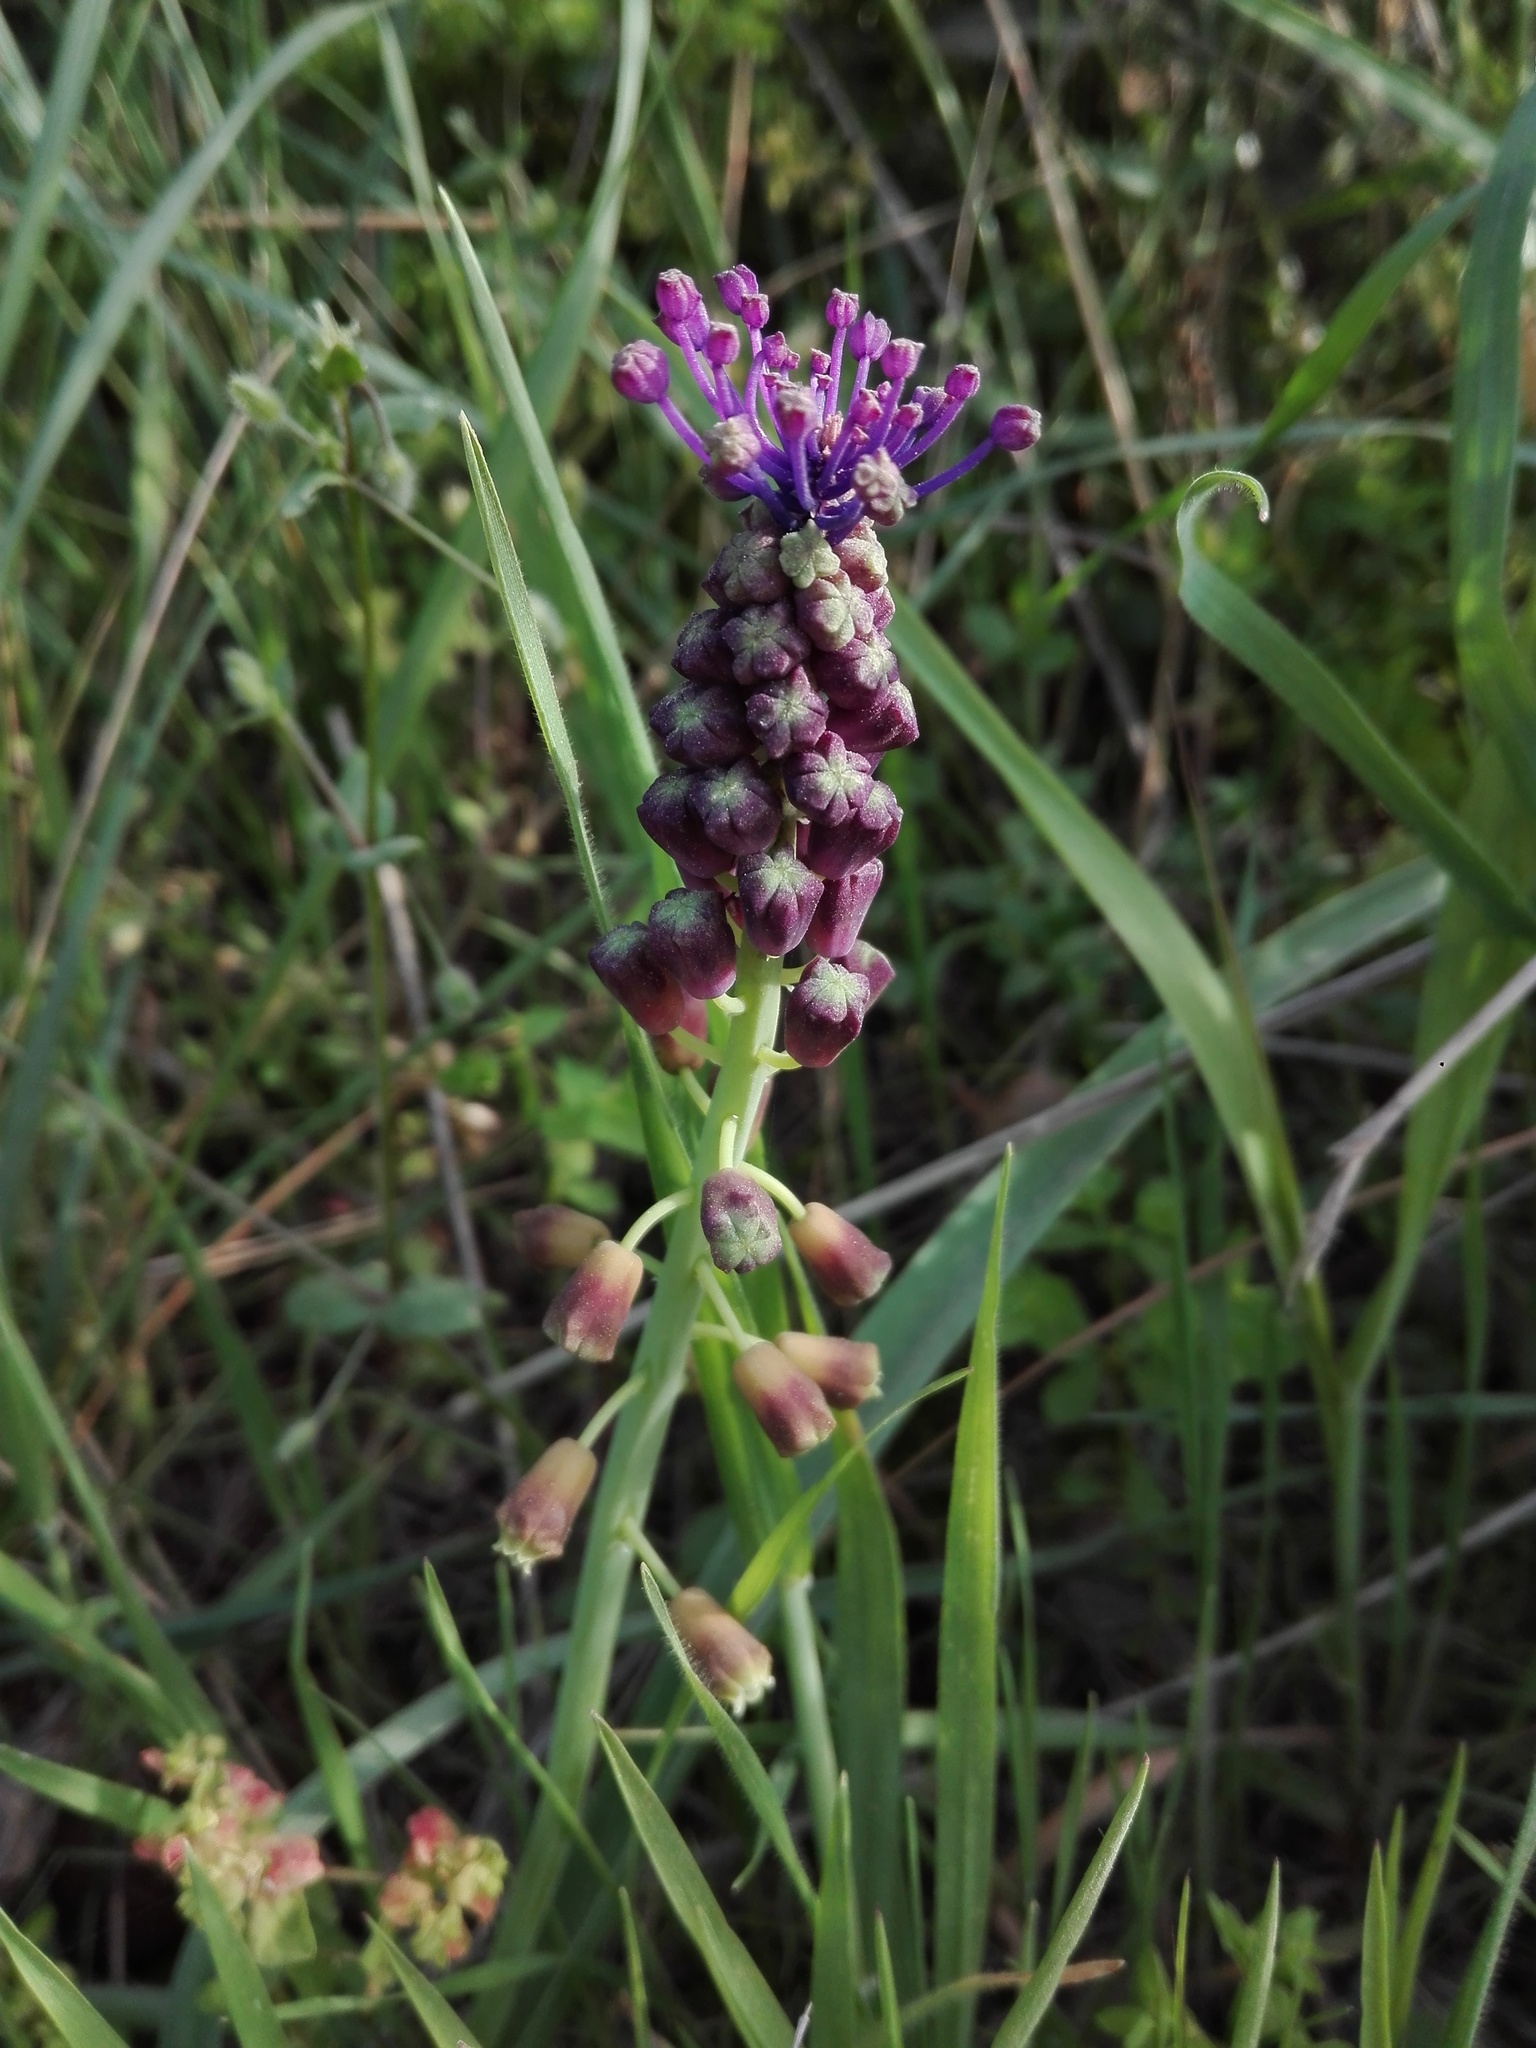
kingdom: Plantae
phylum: Tracheophyta
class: Liliopsida
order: Asparagales
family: Asparagaceae
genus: Muscari
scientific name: Muscari comosum
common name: Tassel hyacinth
